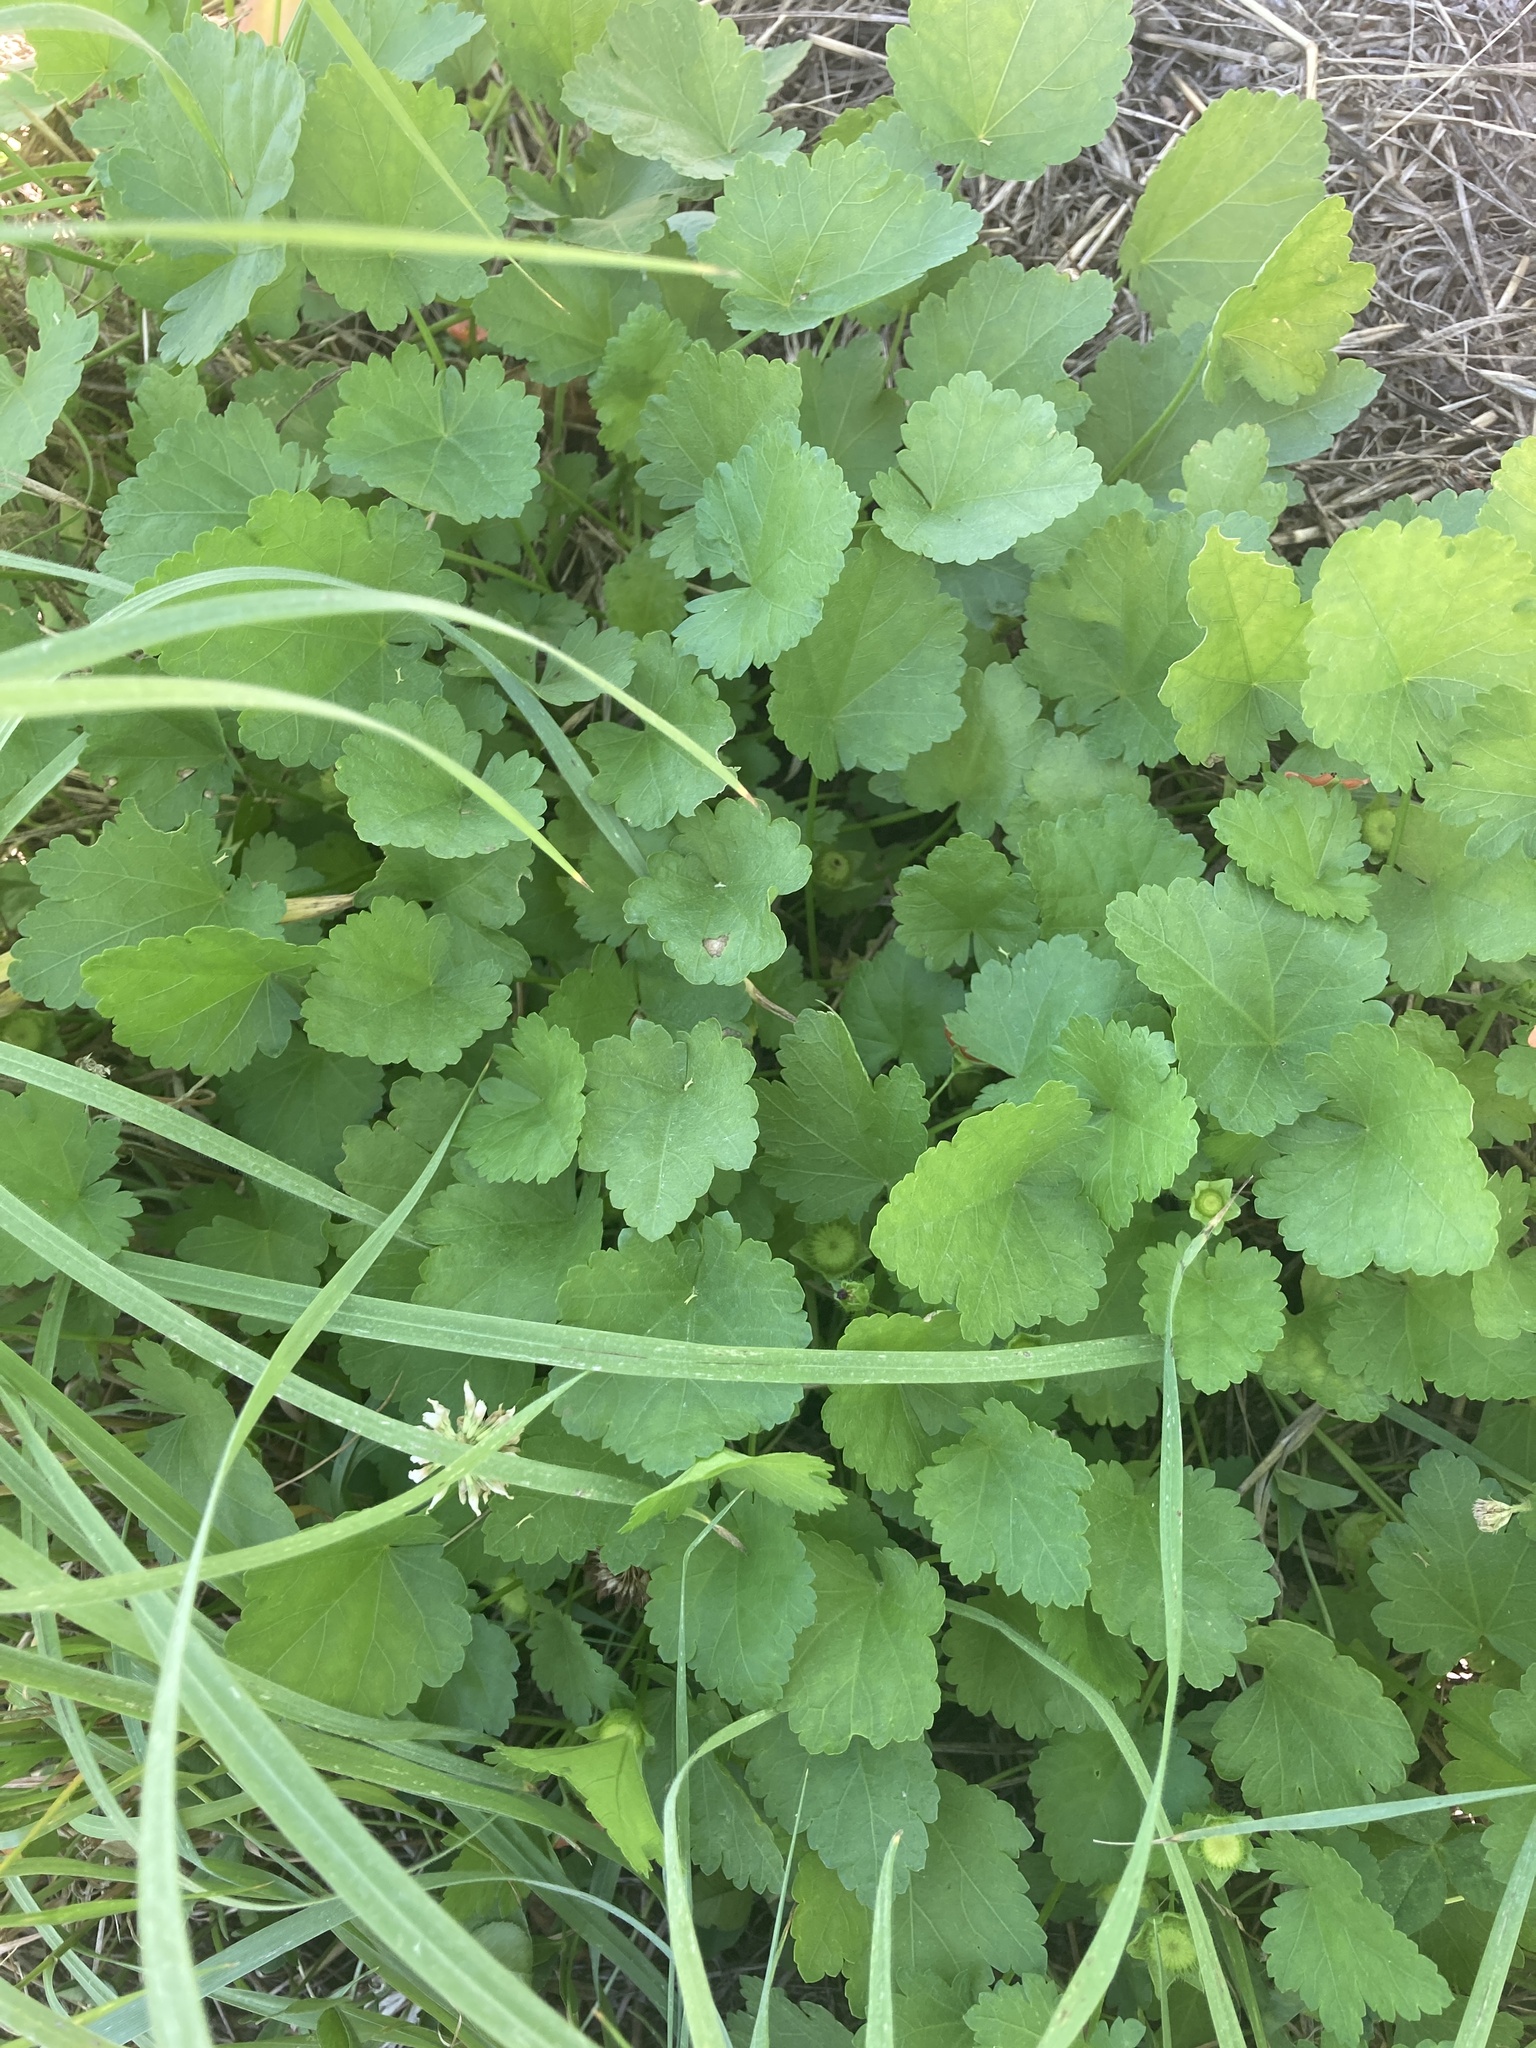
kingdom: Plantae
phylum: Tracheophyta
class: Magnoliopsida
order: Malvales
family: Malvaceae
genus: Modiola
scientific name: Modiola caroliniana
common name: Carolina bristlemallow
